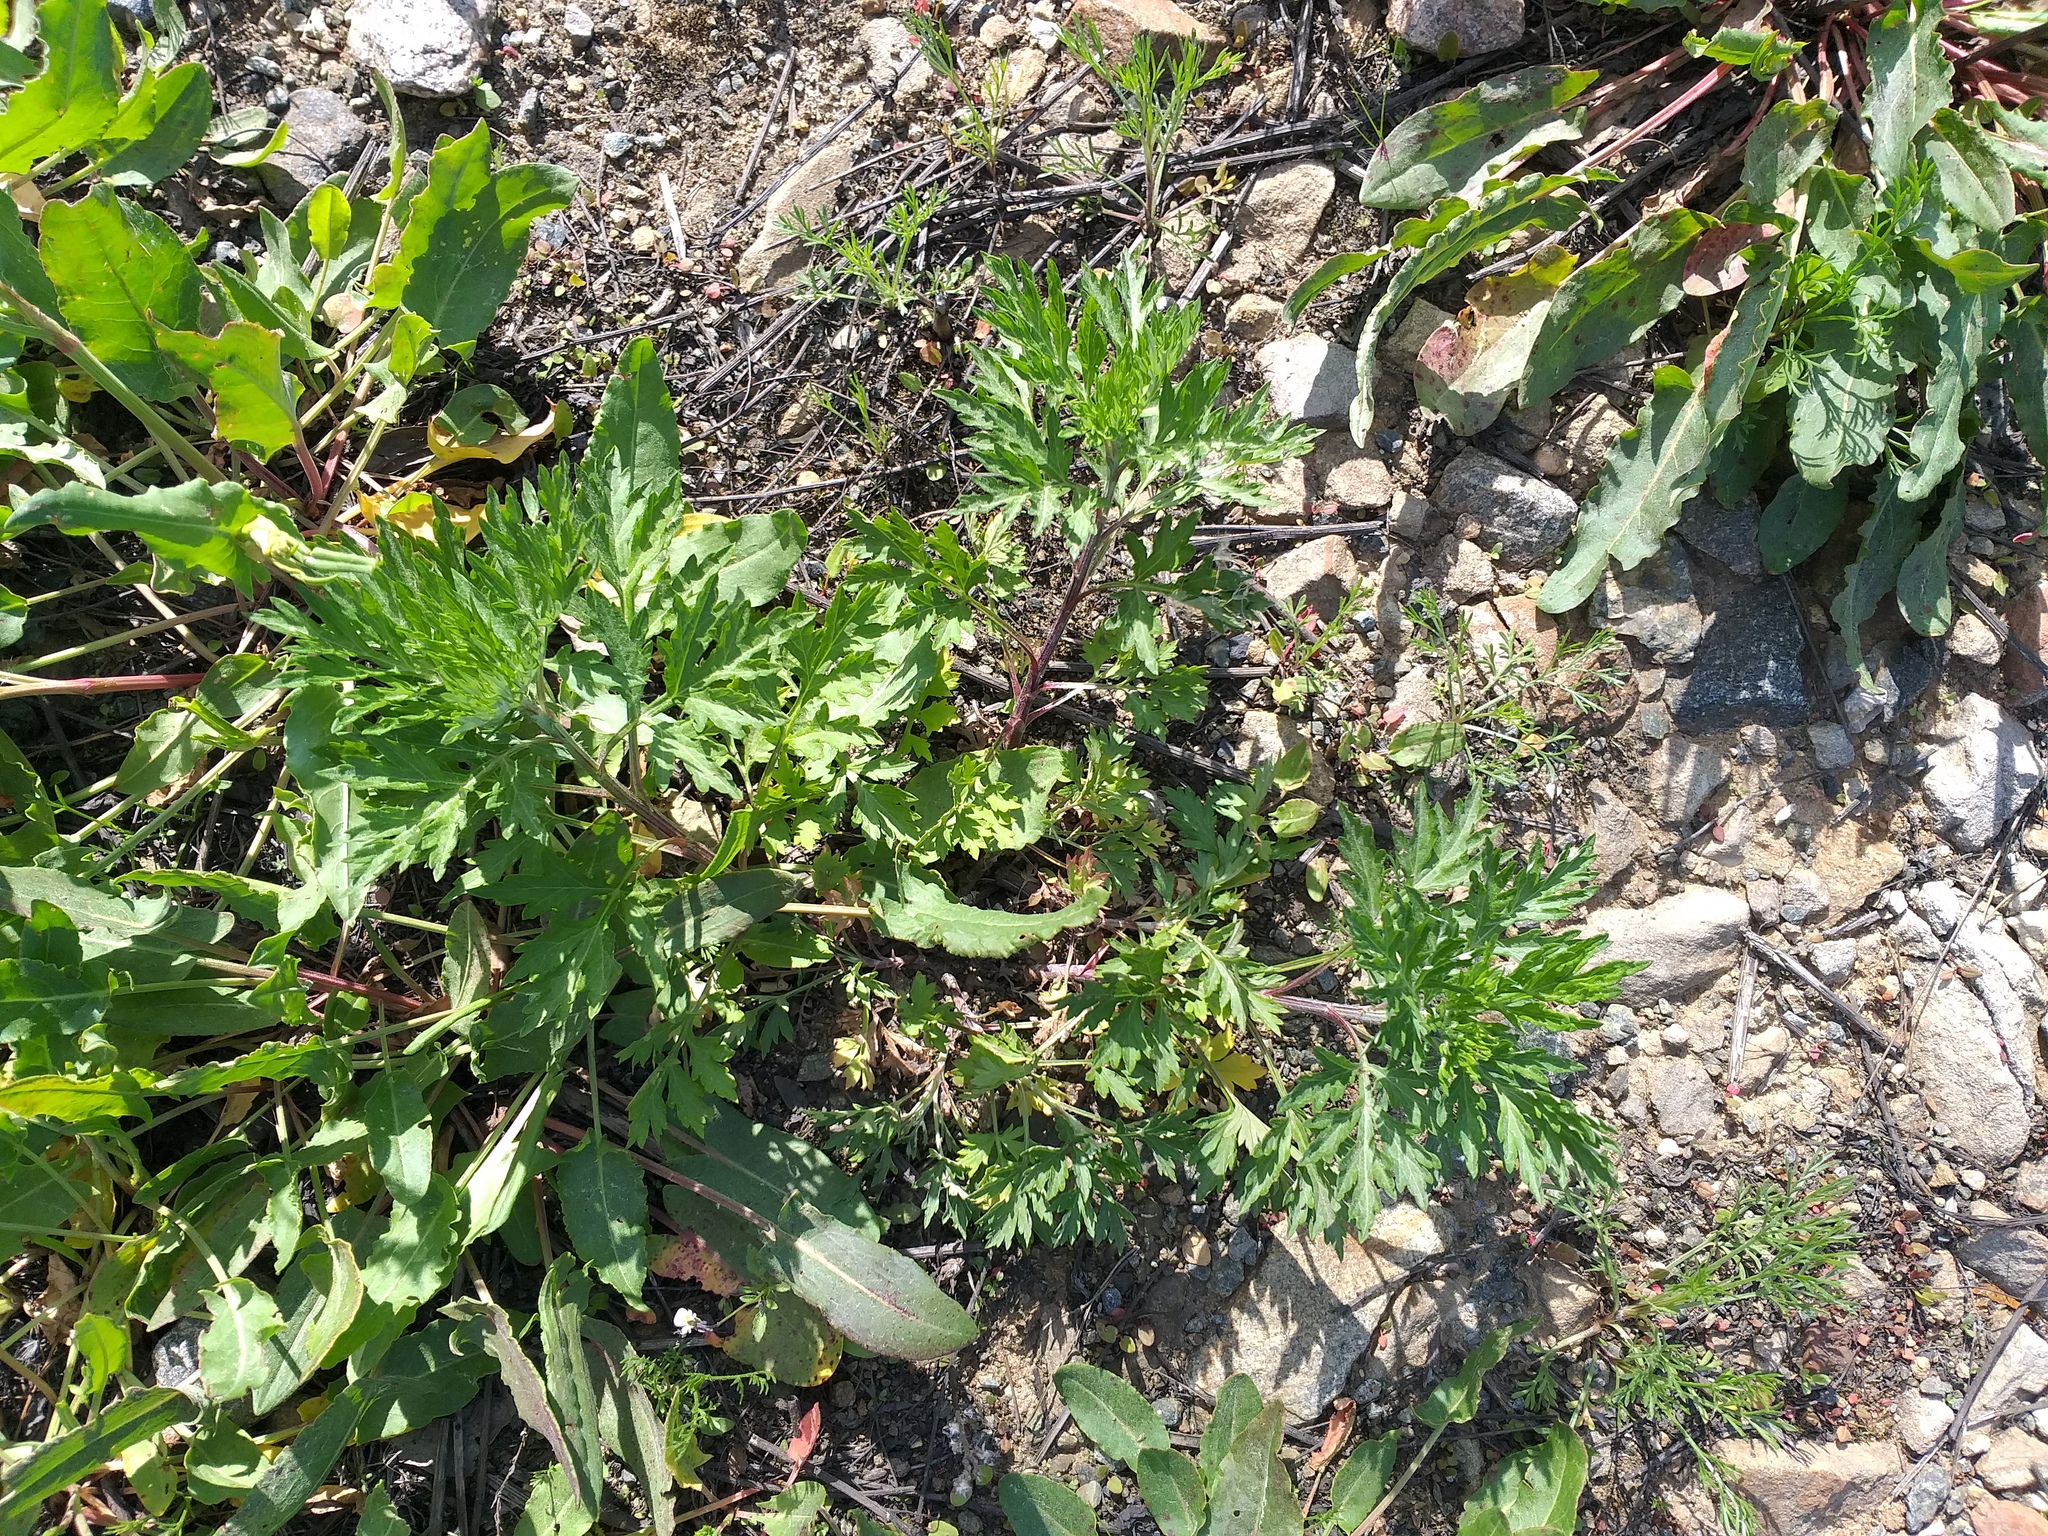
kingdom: Plantae
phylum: Tracheophyta
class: Magnoliopsida
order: Asterales
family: Asteraceae
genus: Artemisia
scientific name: Artemisia vulgaris
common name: Mugwort
